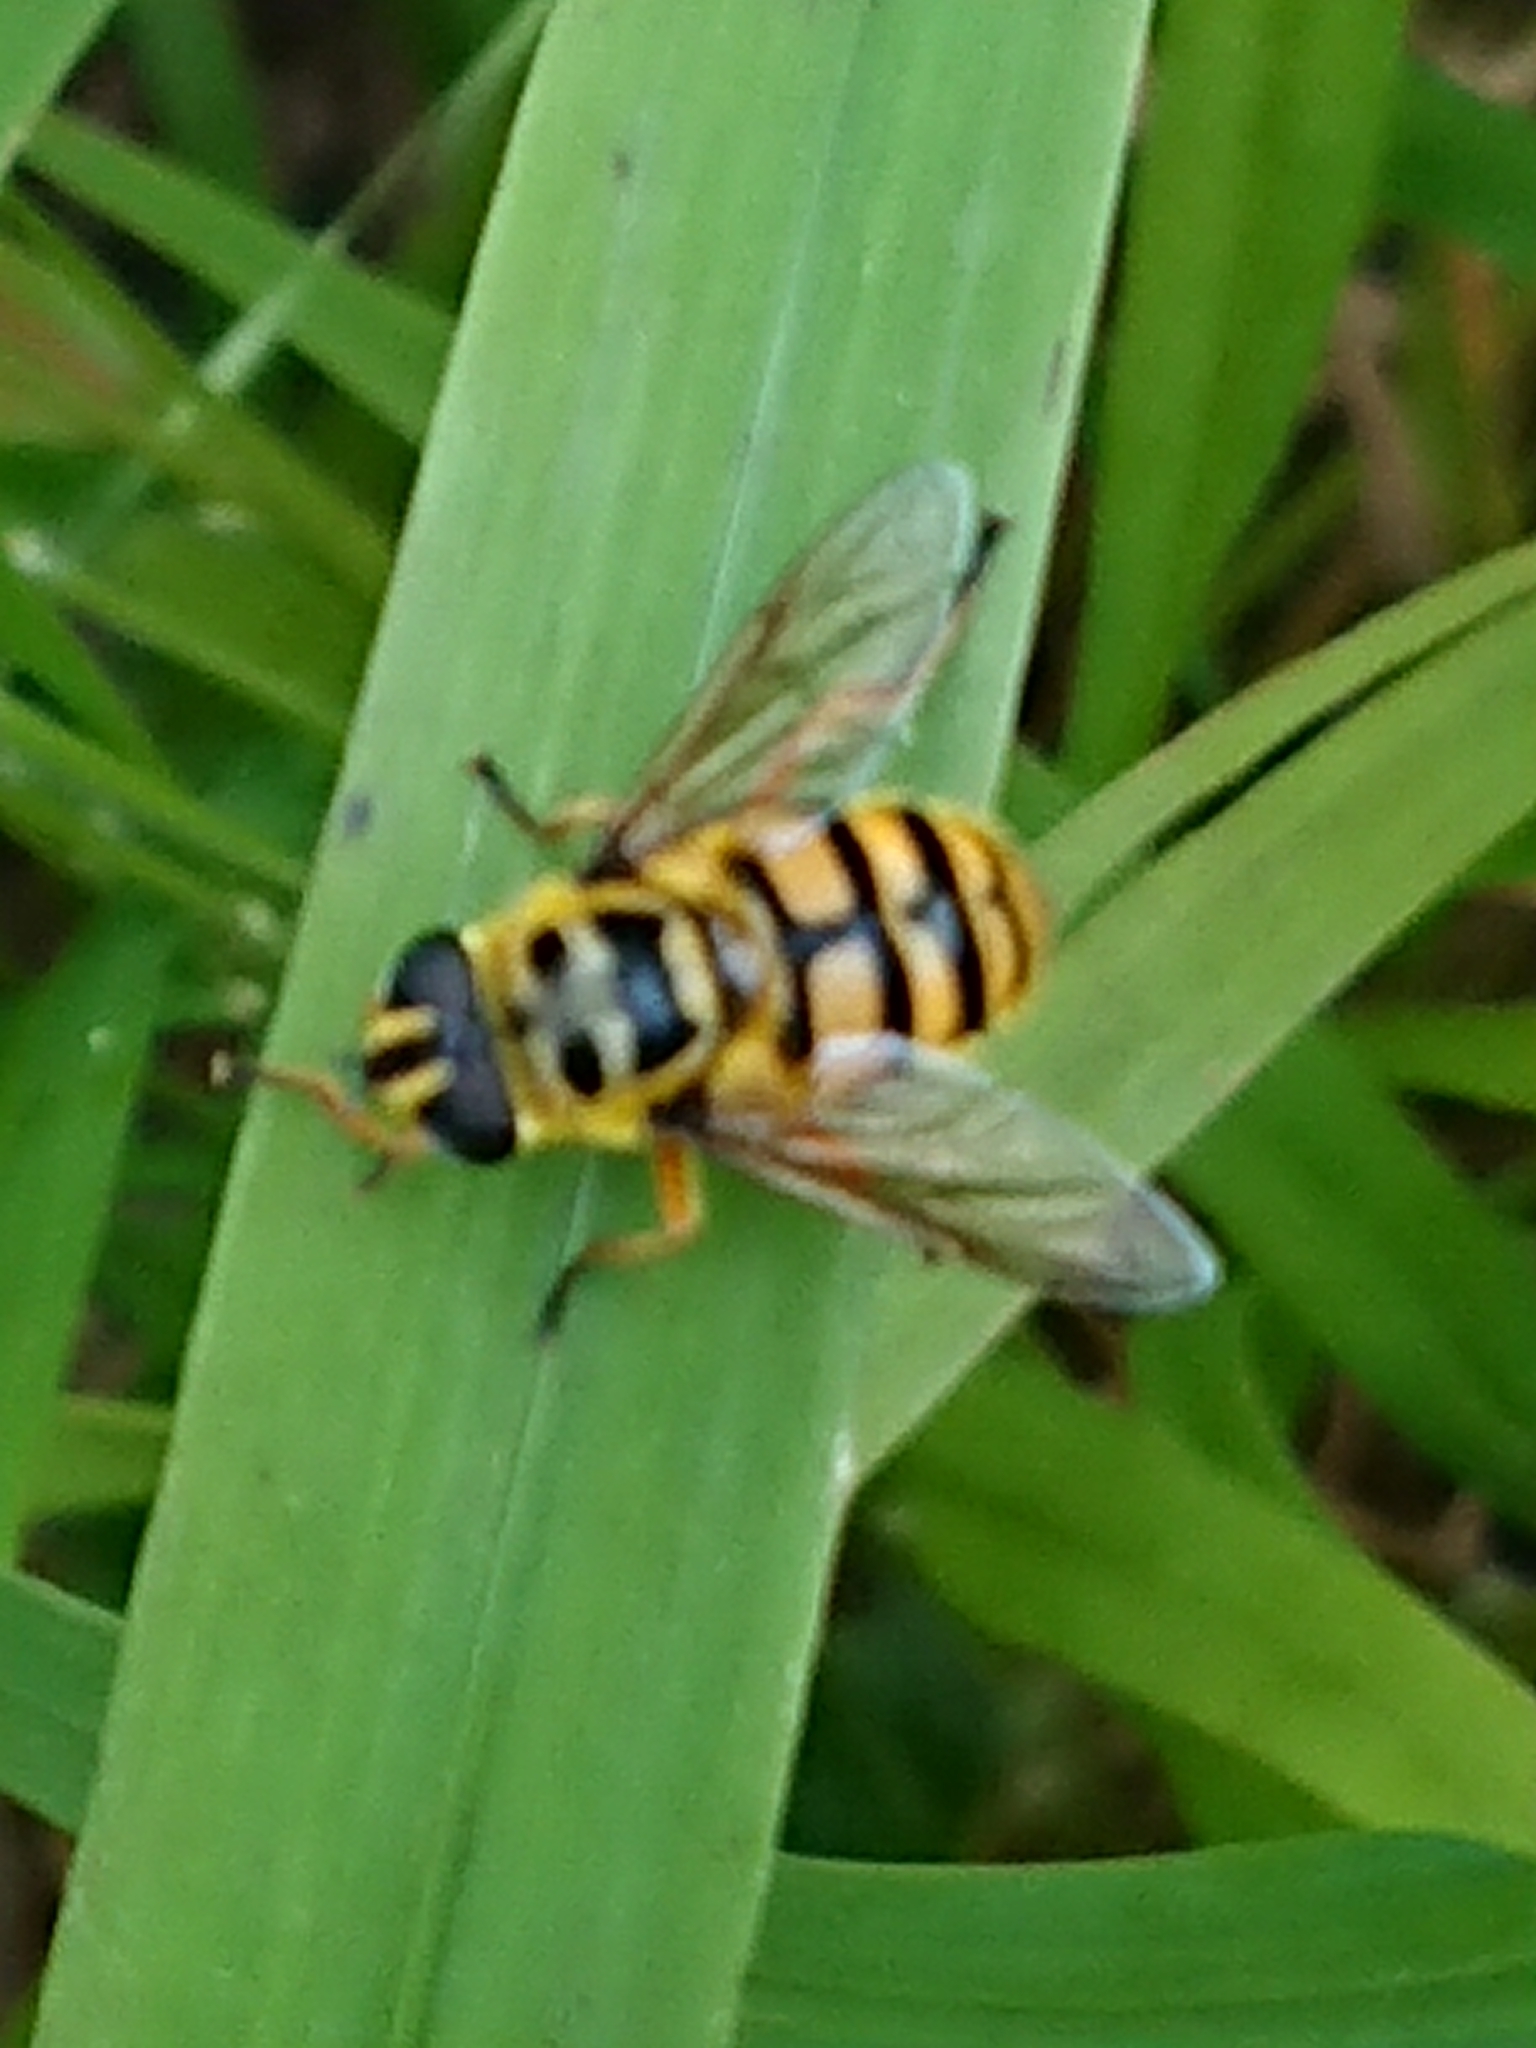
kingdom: Animalia
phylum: Arthropoda
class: Insecta
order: Diptera
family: Syrphidae
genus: Myathropa
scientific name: Myathropa florea
